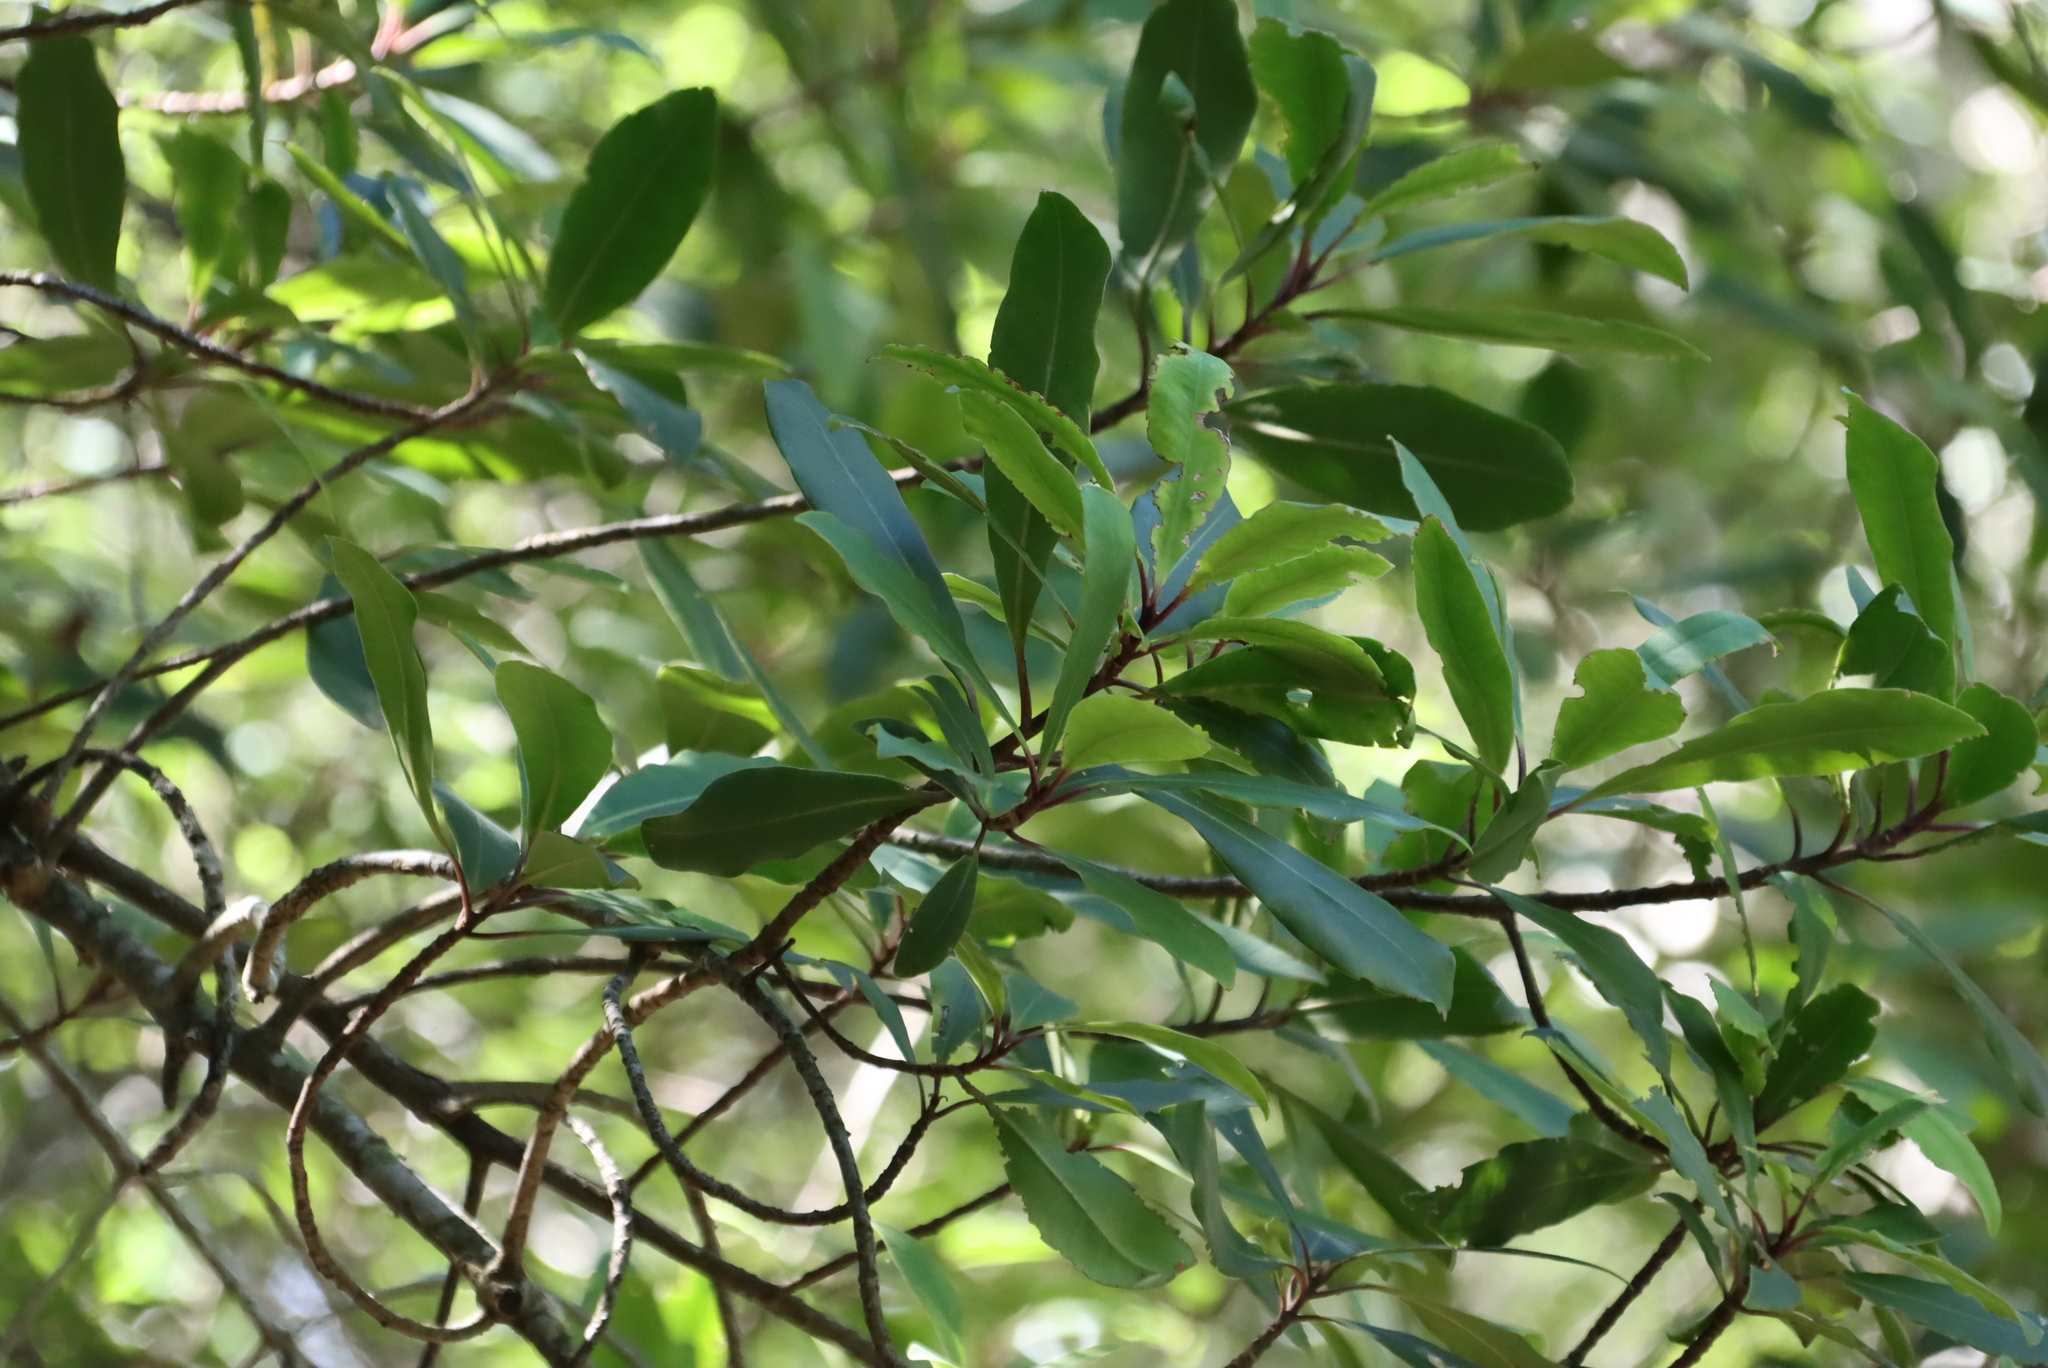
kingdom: Plantae
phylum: Tracheophyta
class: Magnoliopsida
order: Ericales
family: Primulaceae
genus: Myrsine
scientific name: Myrsine melanophloeos
